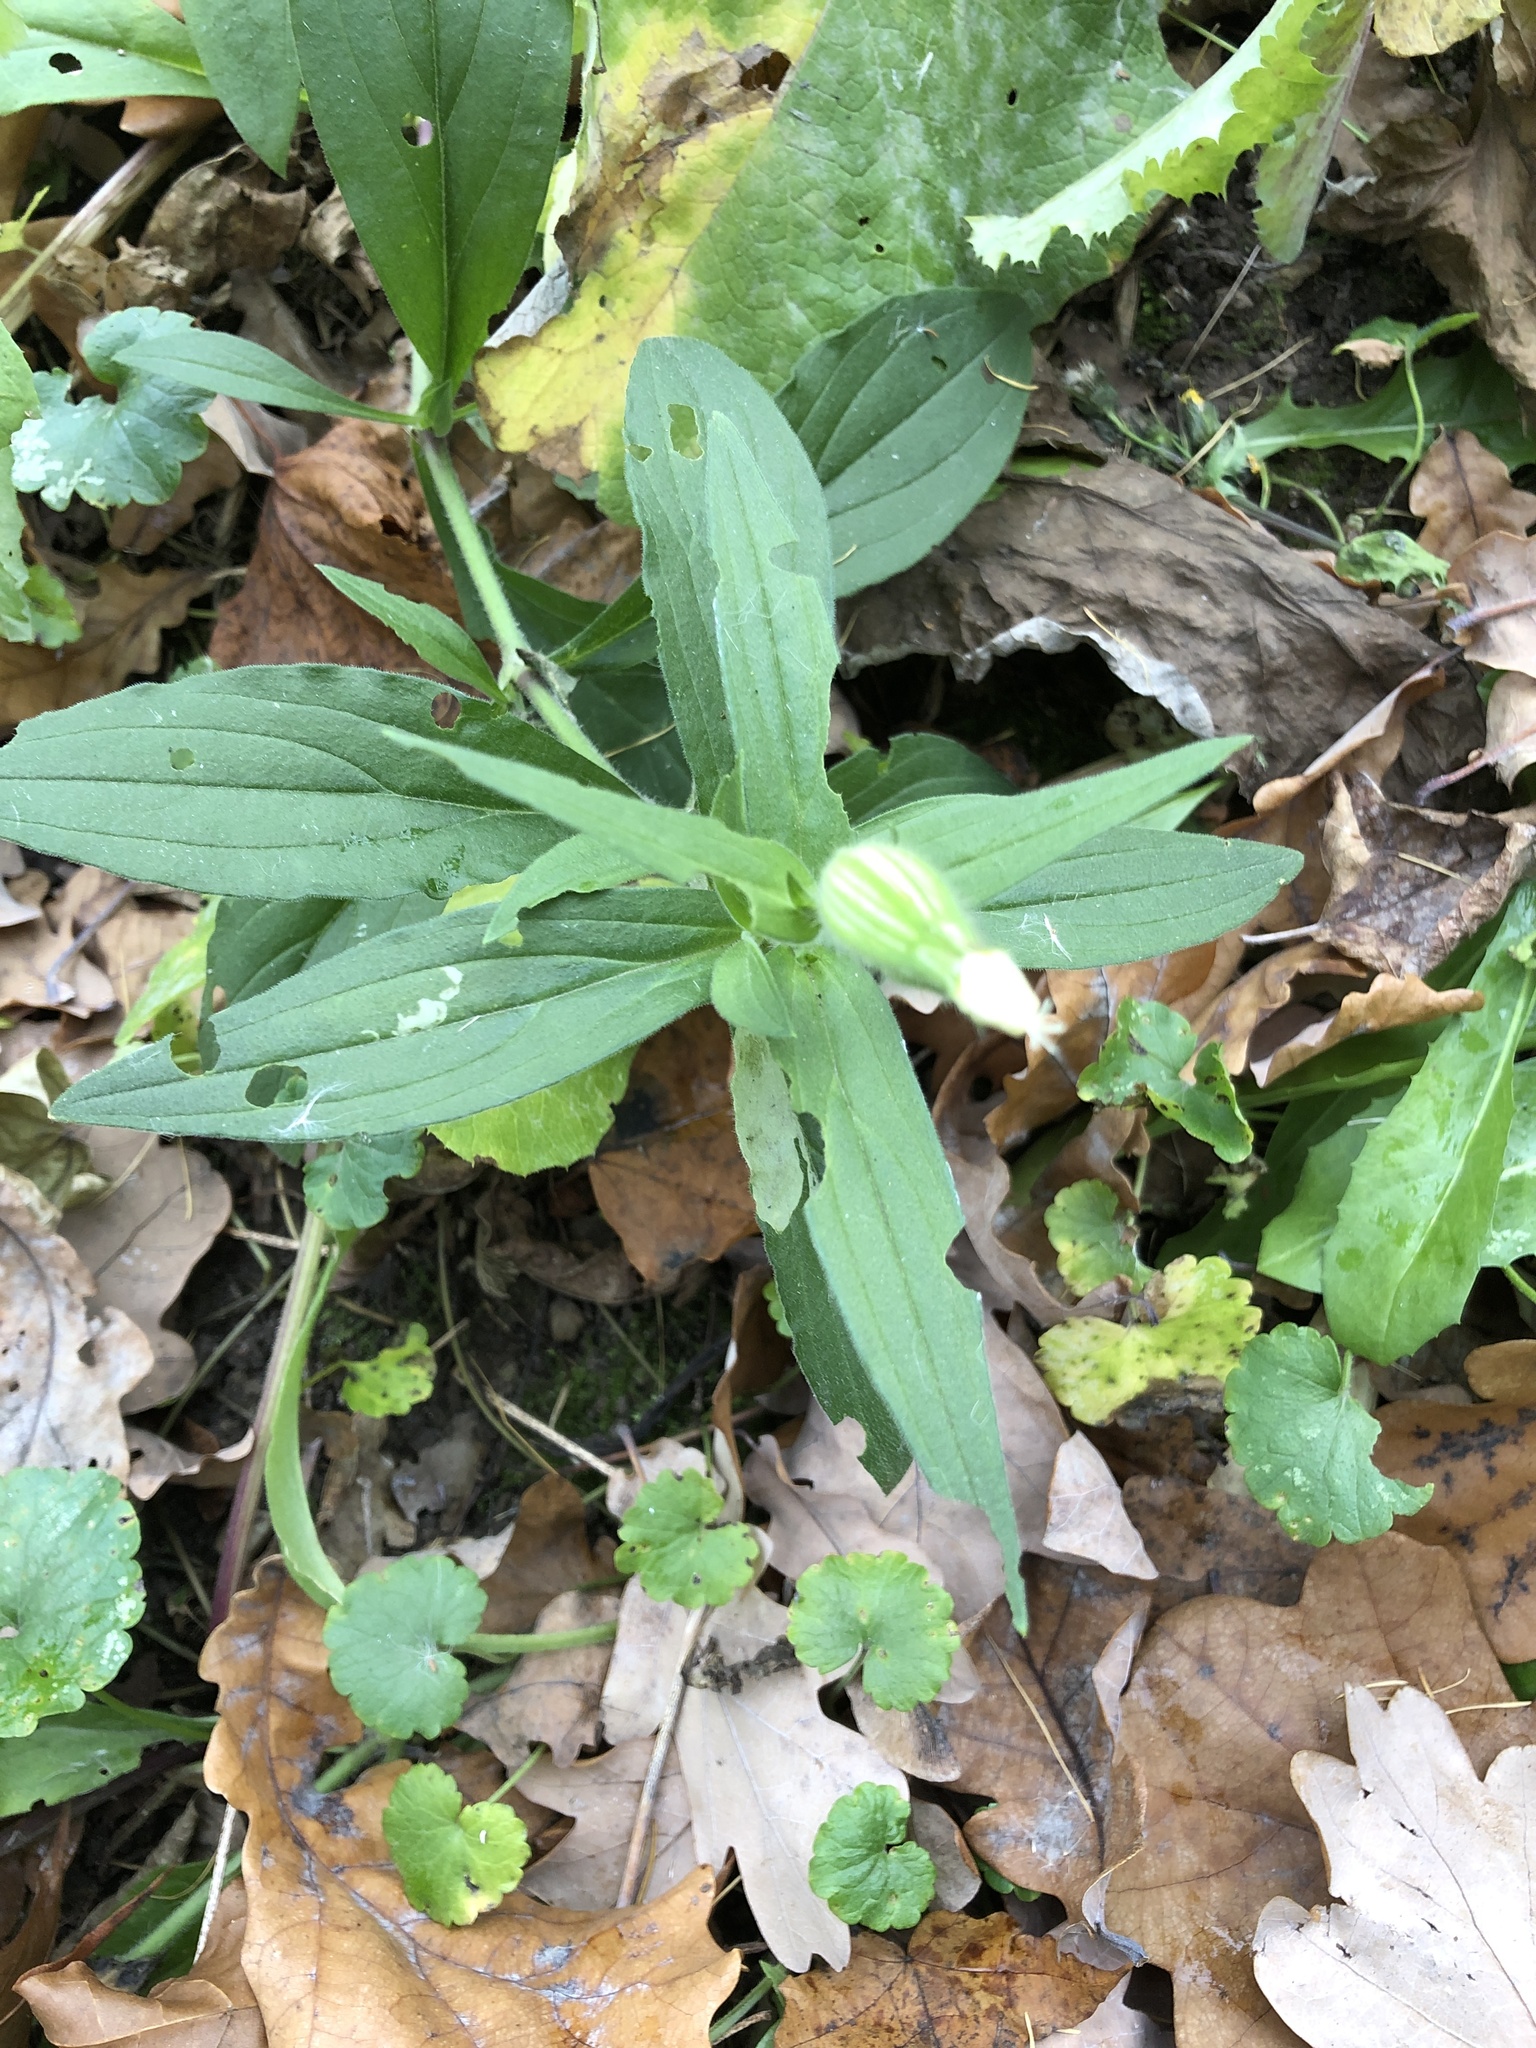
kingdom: Plantae
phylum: Tracheophyta
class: Magnoliopsida
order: Caryophyllales
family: Caryophyllaceae
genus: Silene
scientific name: Silene latifolia
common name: White campion
